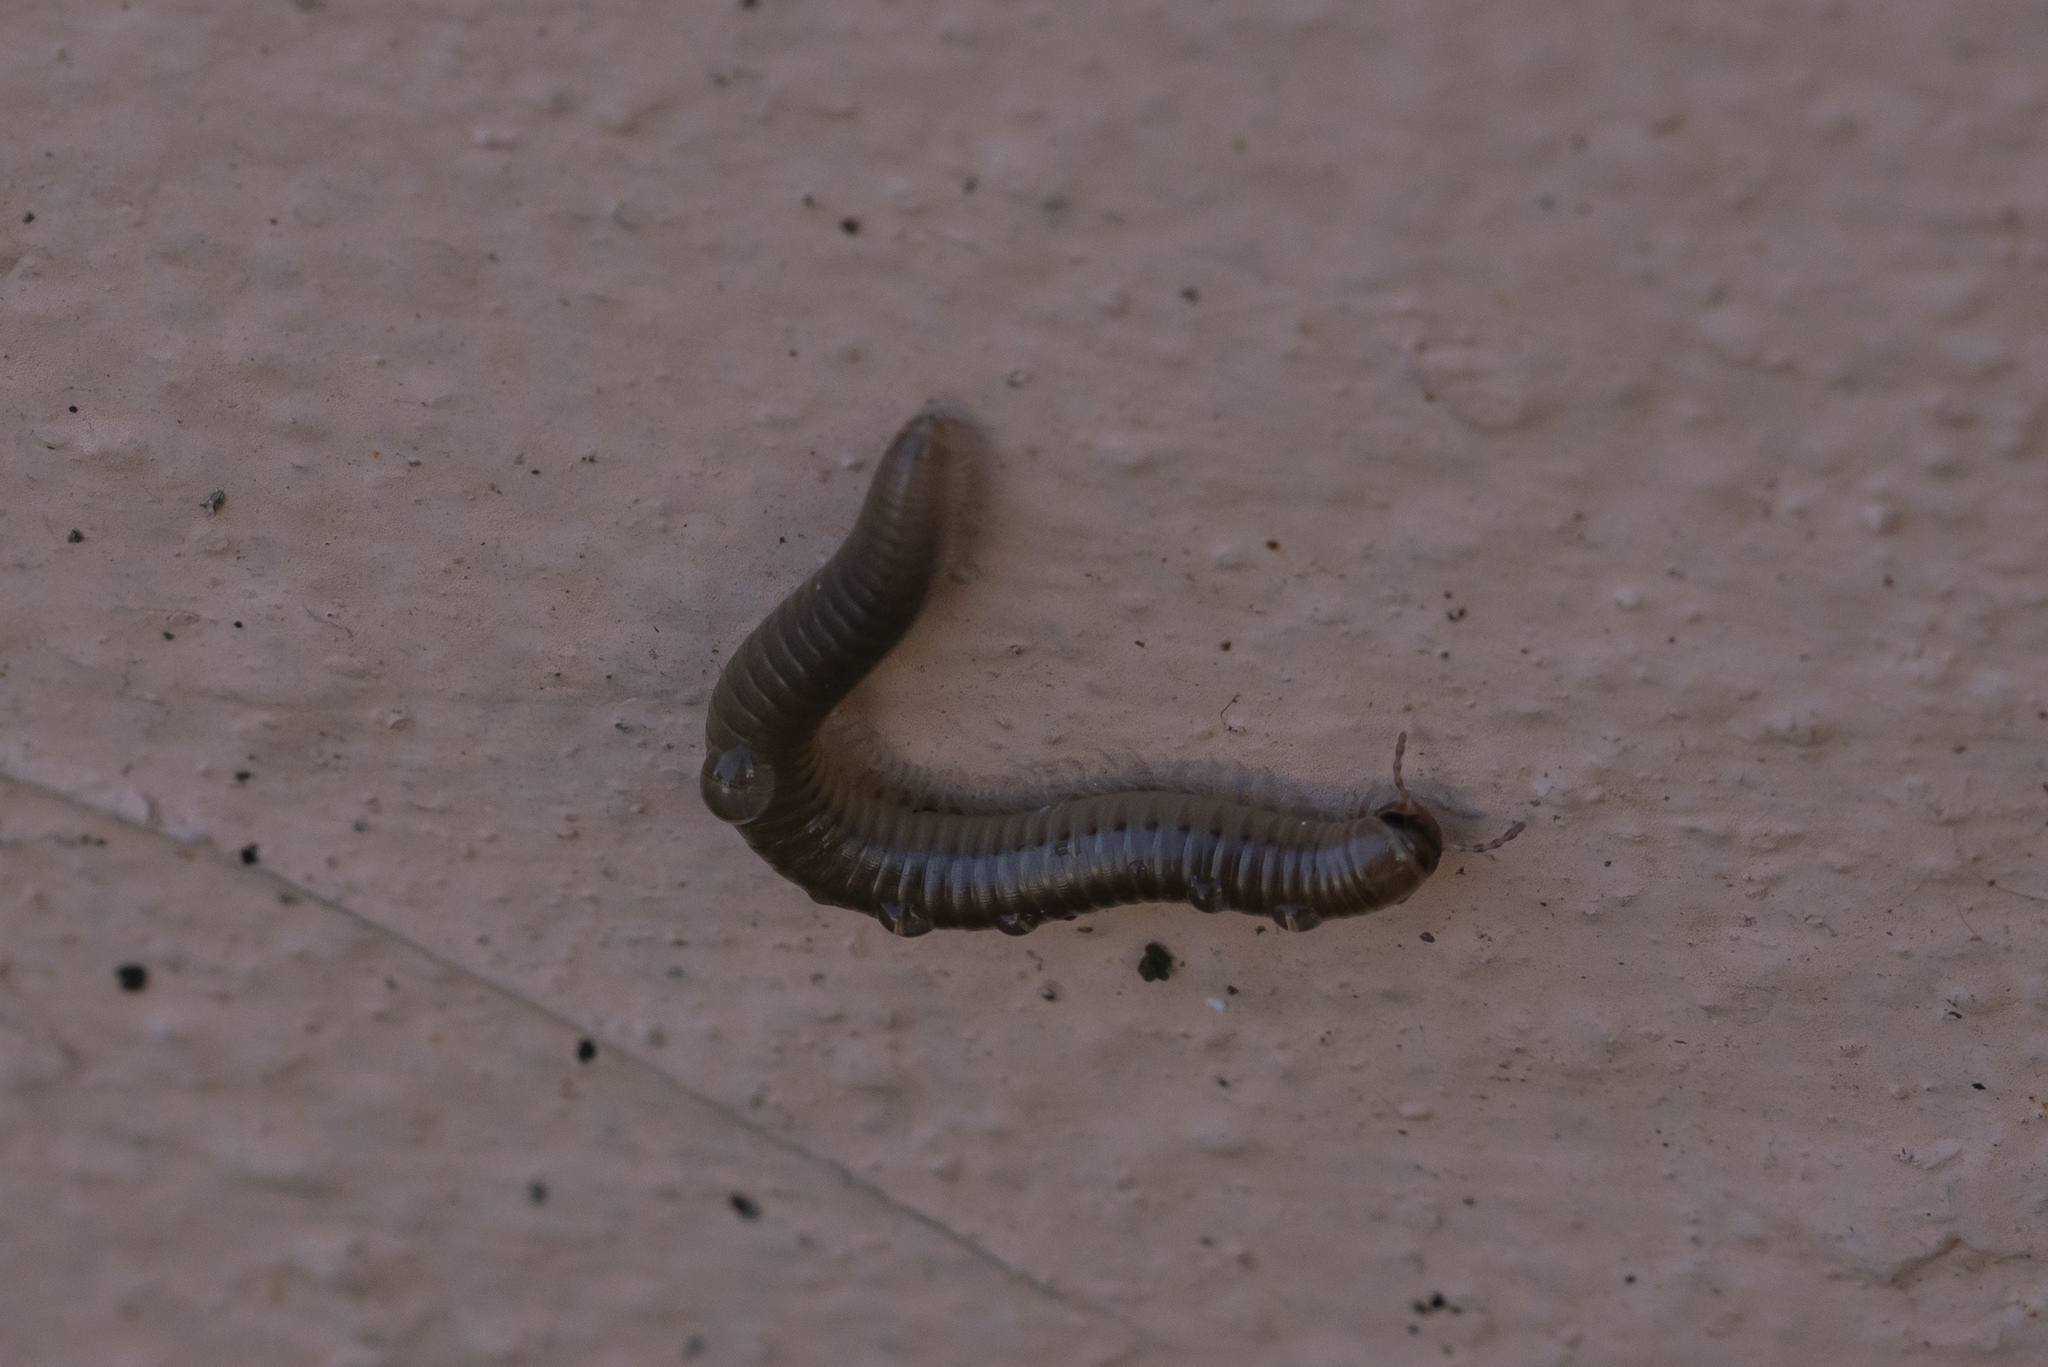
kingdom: Animalia
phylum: Arthropoda
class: Diplopoda
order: Julida
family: Julidae
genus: Pachyiulus
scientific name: Pachyiulus flavipes
